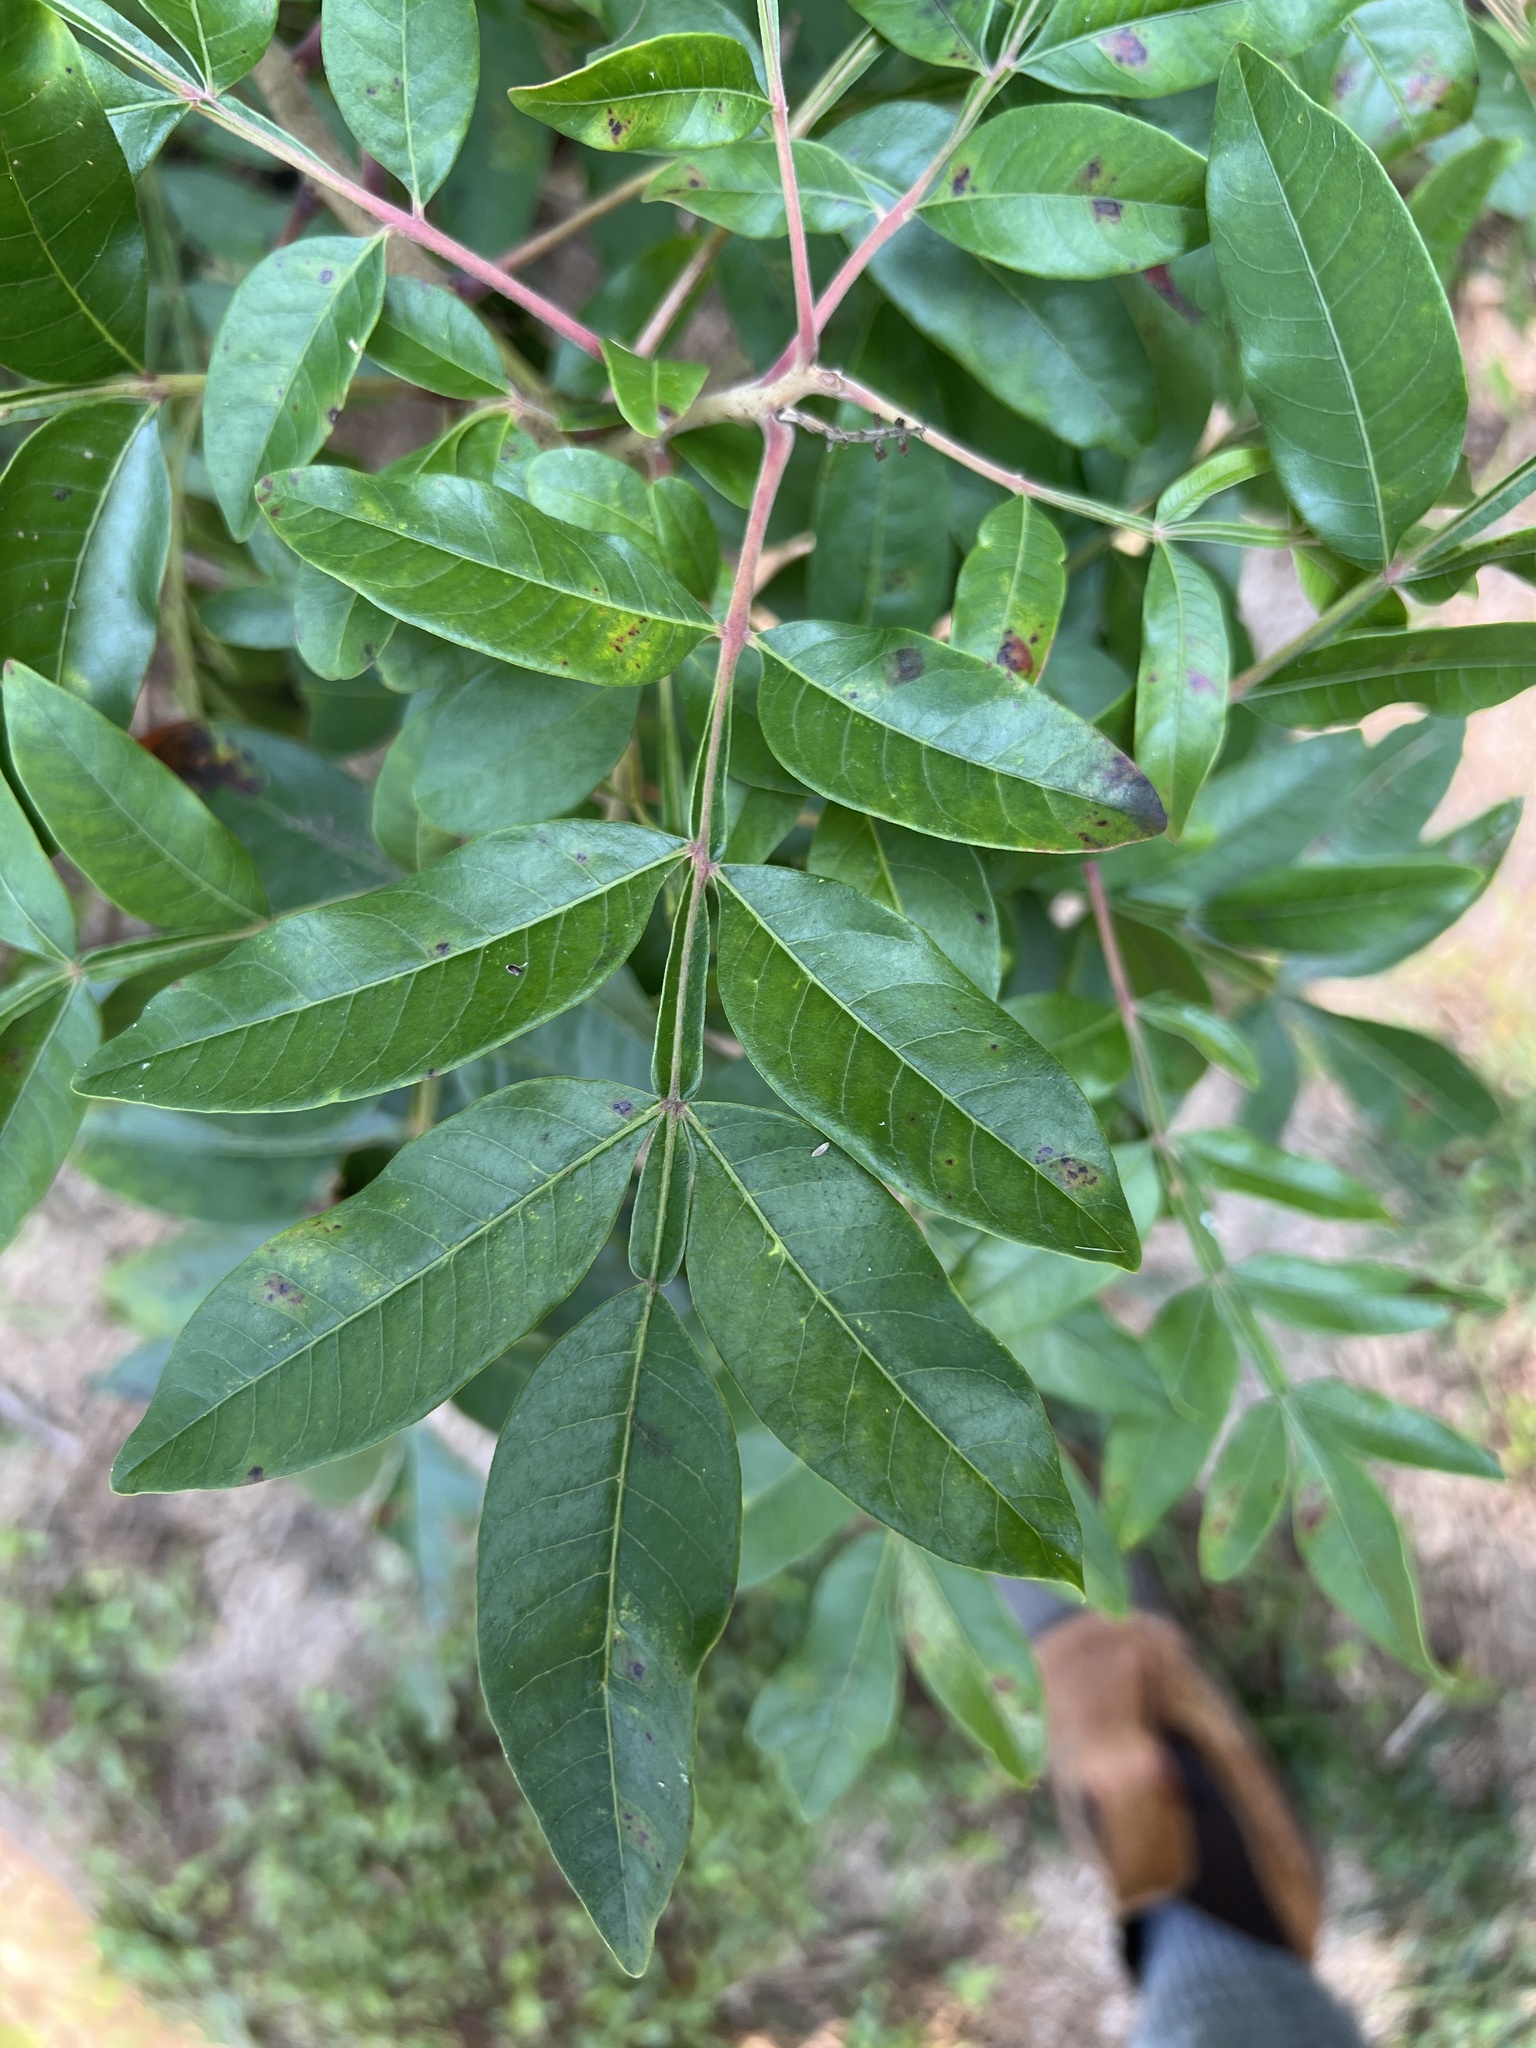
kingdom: Plantae
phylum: Tracheophyta
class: Magnoliopsida
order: Sapindales
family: Anacardiaceae
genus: Rhus
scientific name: Rhus copallina
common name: Shining sumac
